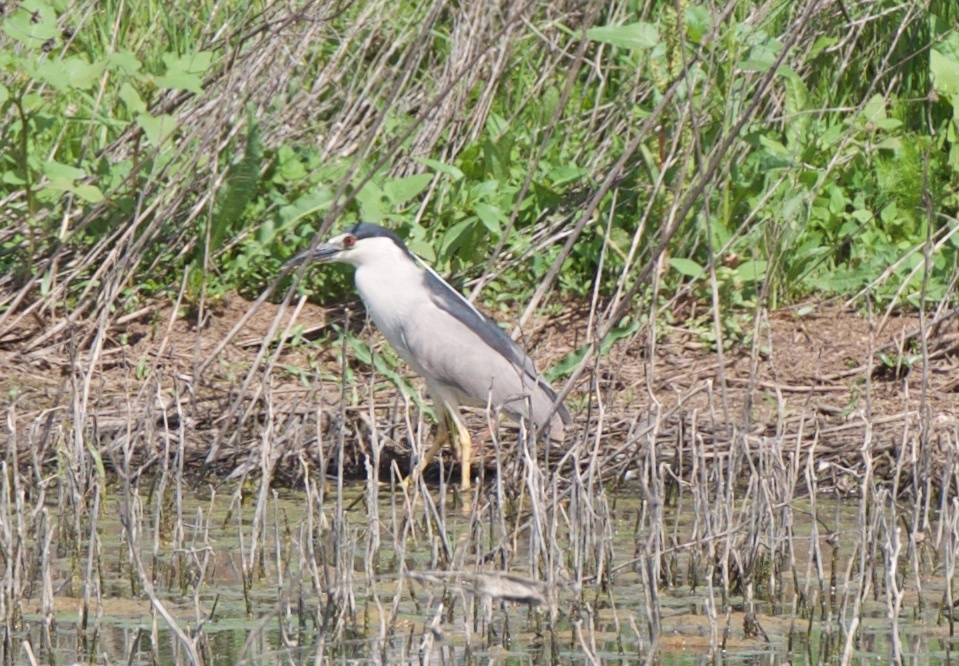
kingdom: Animalia
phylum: Chordata
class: Aves
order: Pelecaniformes
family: Ardeidae
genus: Nycticorax
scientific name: Nycticorax nycticorax
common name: Black-crowned night heron
